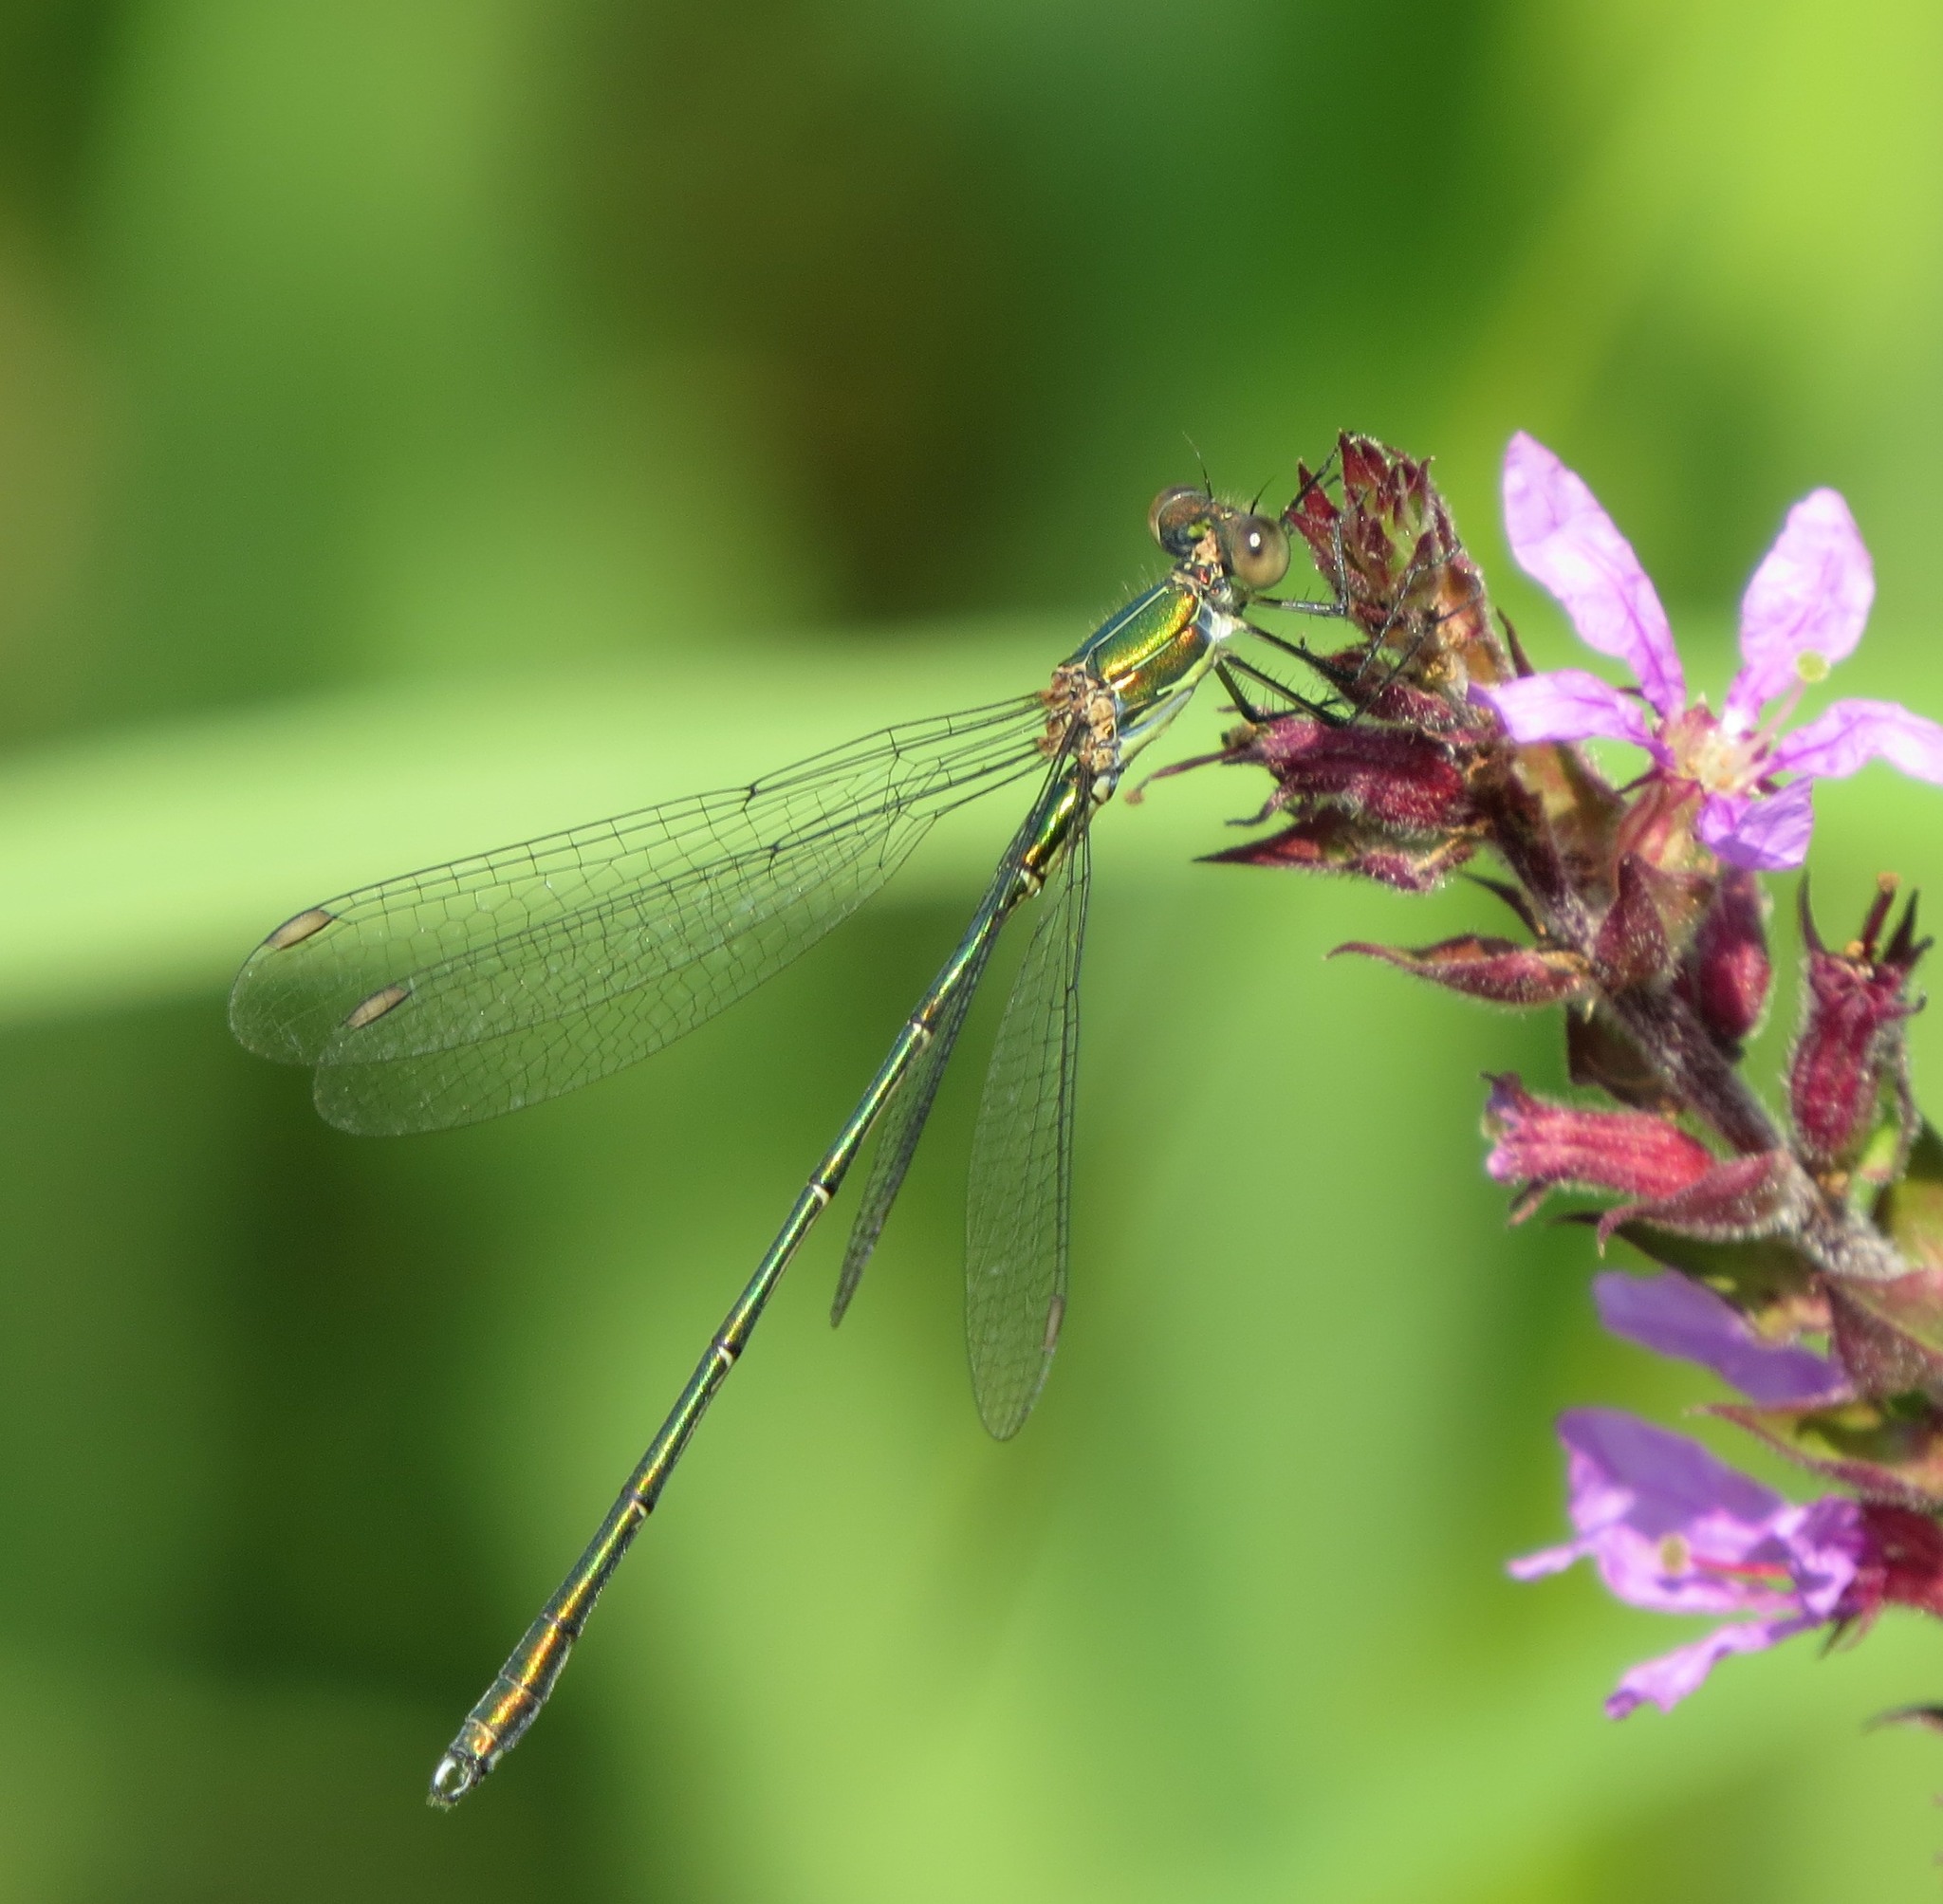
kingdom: Animalia
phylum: Arthropoda
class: Insecta
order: Odonata
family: Lestidae
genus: Chalcolestes
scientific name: Chalcolestes viridis
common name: Green emerald damselfly
